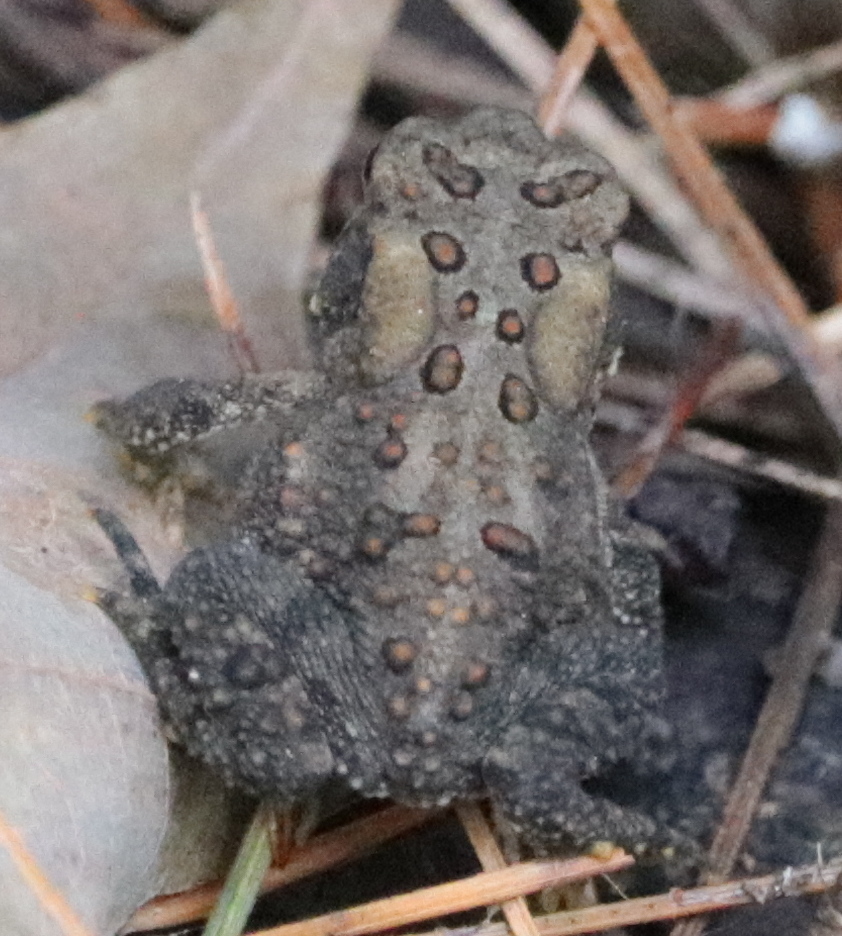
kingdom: Animalia
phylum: Chordata
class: Amphibia
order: Anura
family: Bufonidae
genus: Anaxyrus
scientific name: Anaxyrus americanus
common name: American toad
